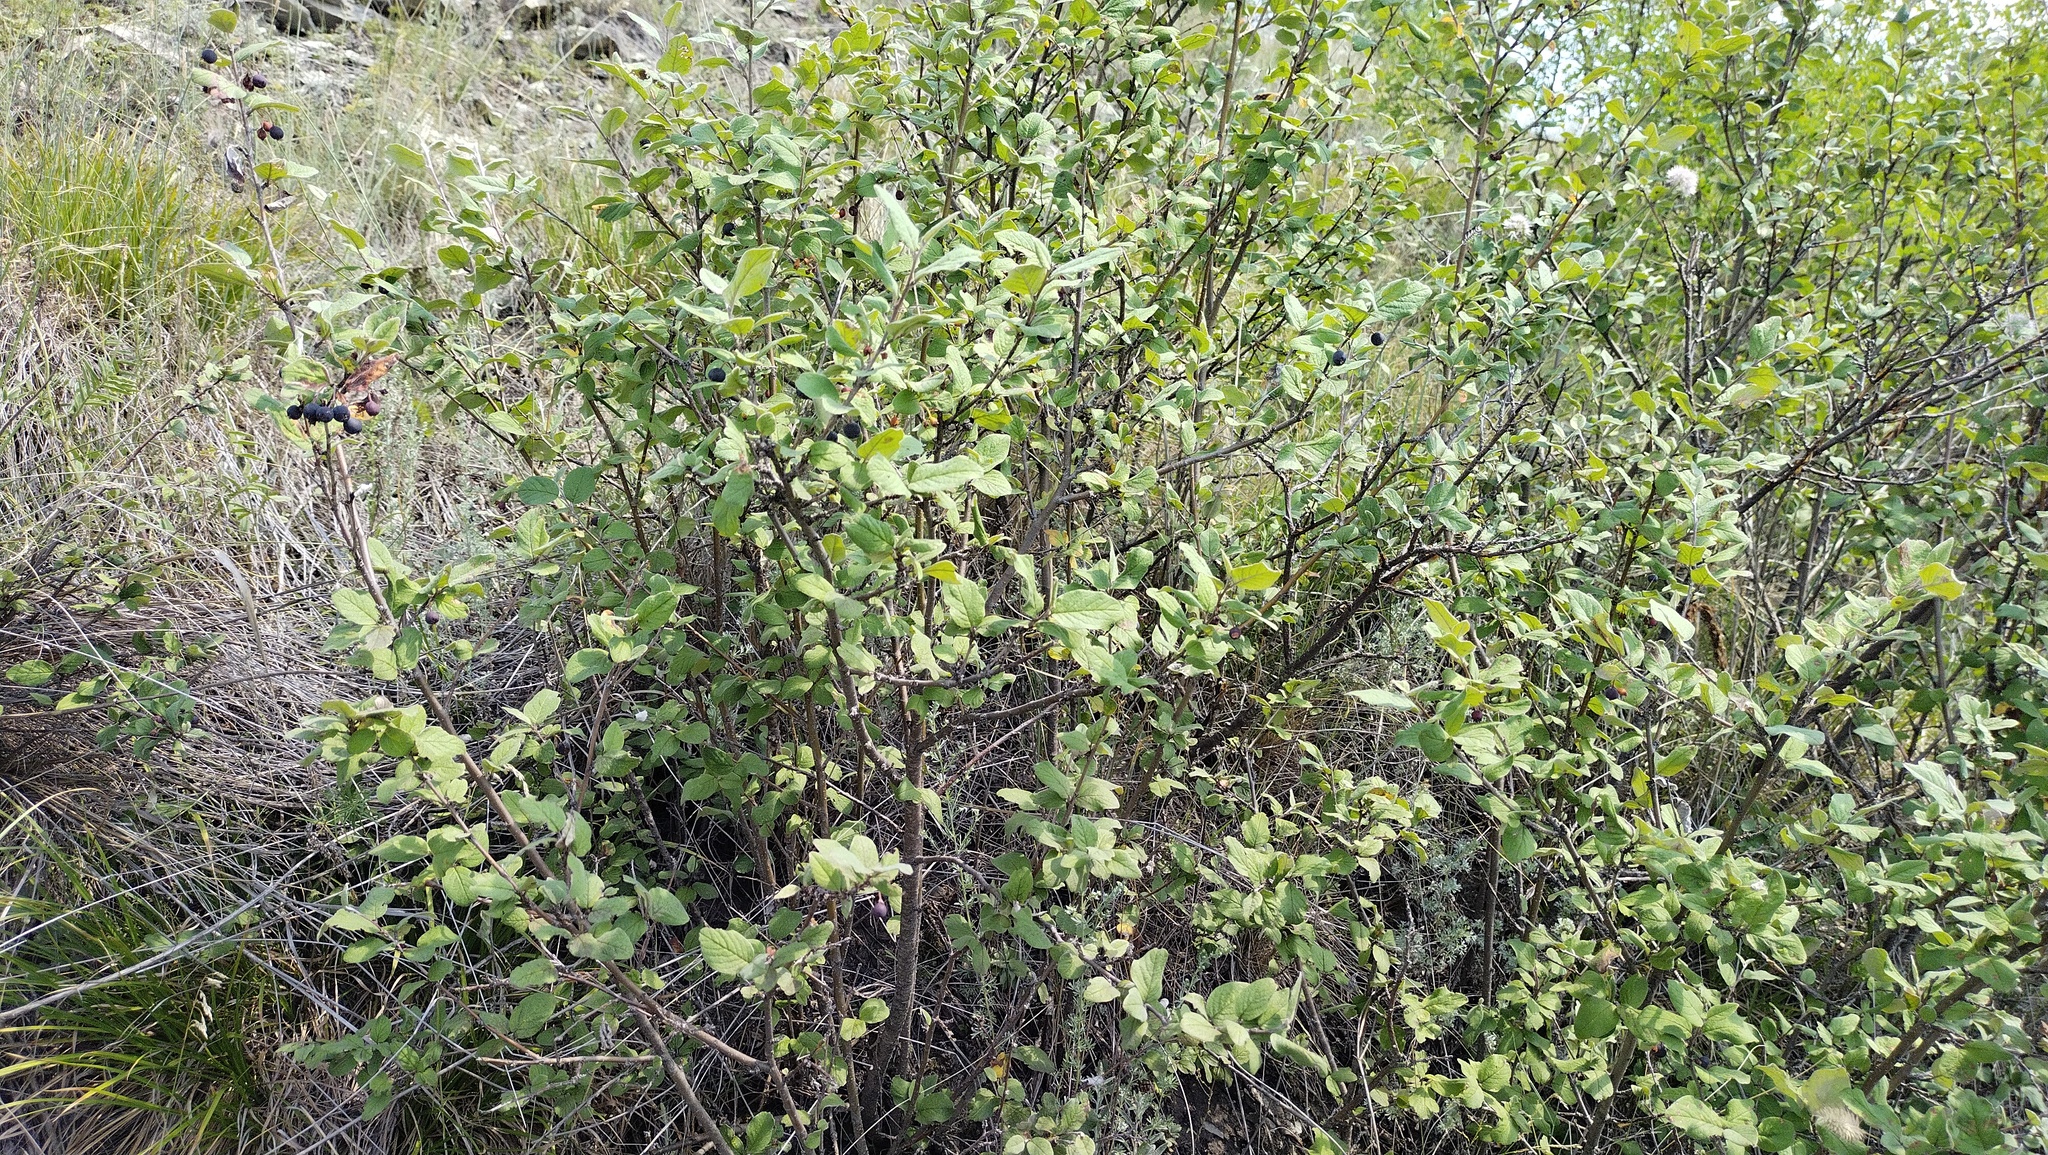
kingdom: Plantae
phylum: Tracheophyta
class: Magnoliopsida
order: Rosales
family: Rosaceae
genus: Cotoneaster
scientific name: Cotoneaster melanocarpus
